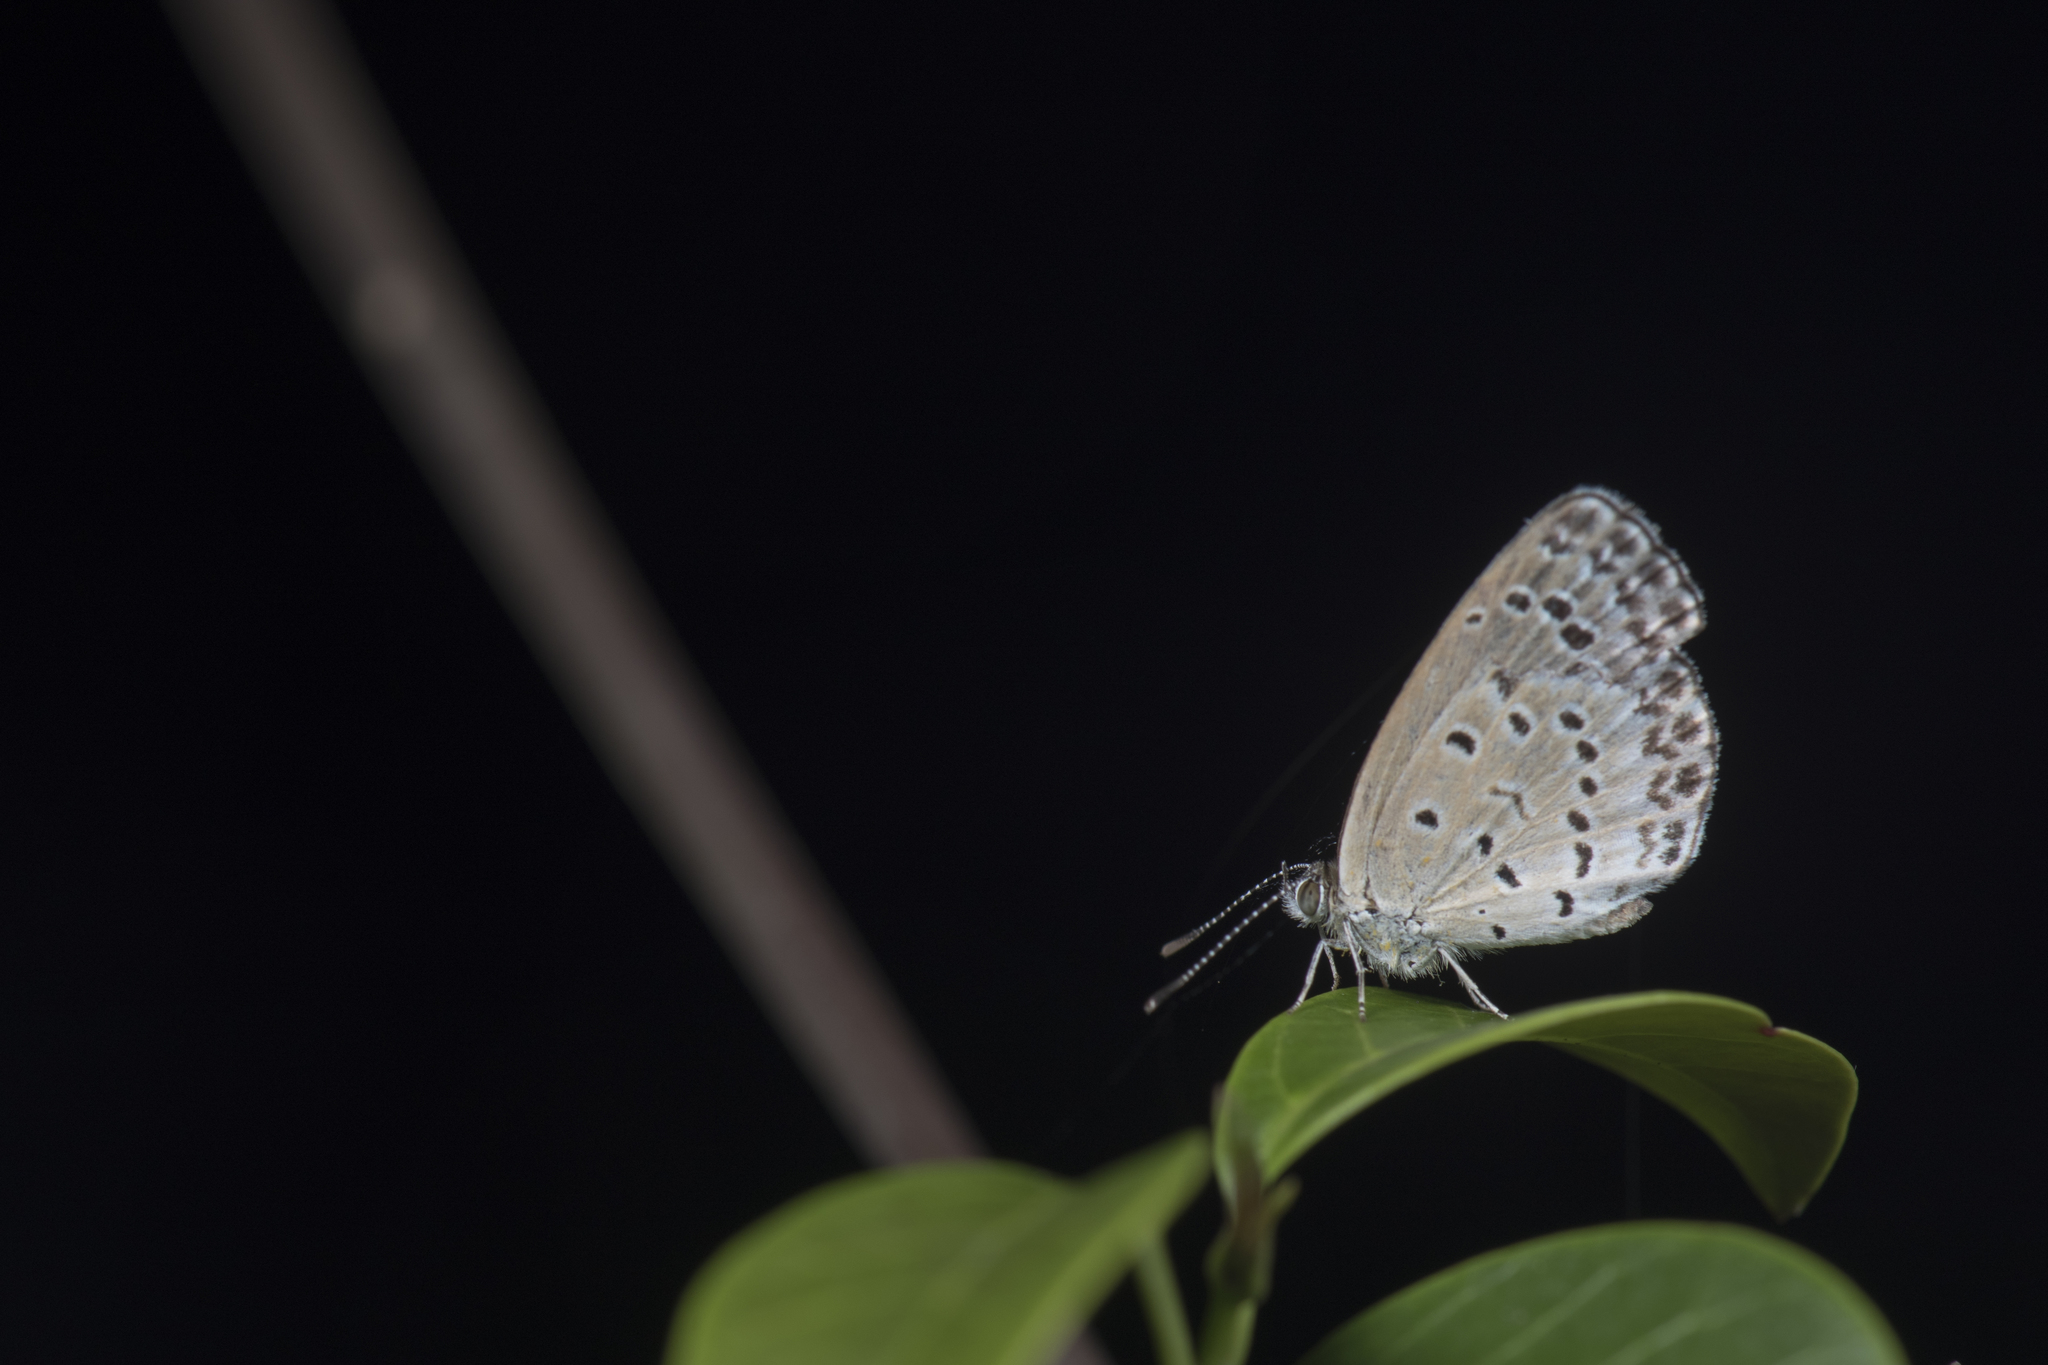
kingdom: Animalia
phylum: Arthropoda
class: Insecta
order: Lepidoptera
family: Lycaenidae
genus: Pseudozizeeria
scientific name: Pseudozizeeria maha
